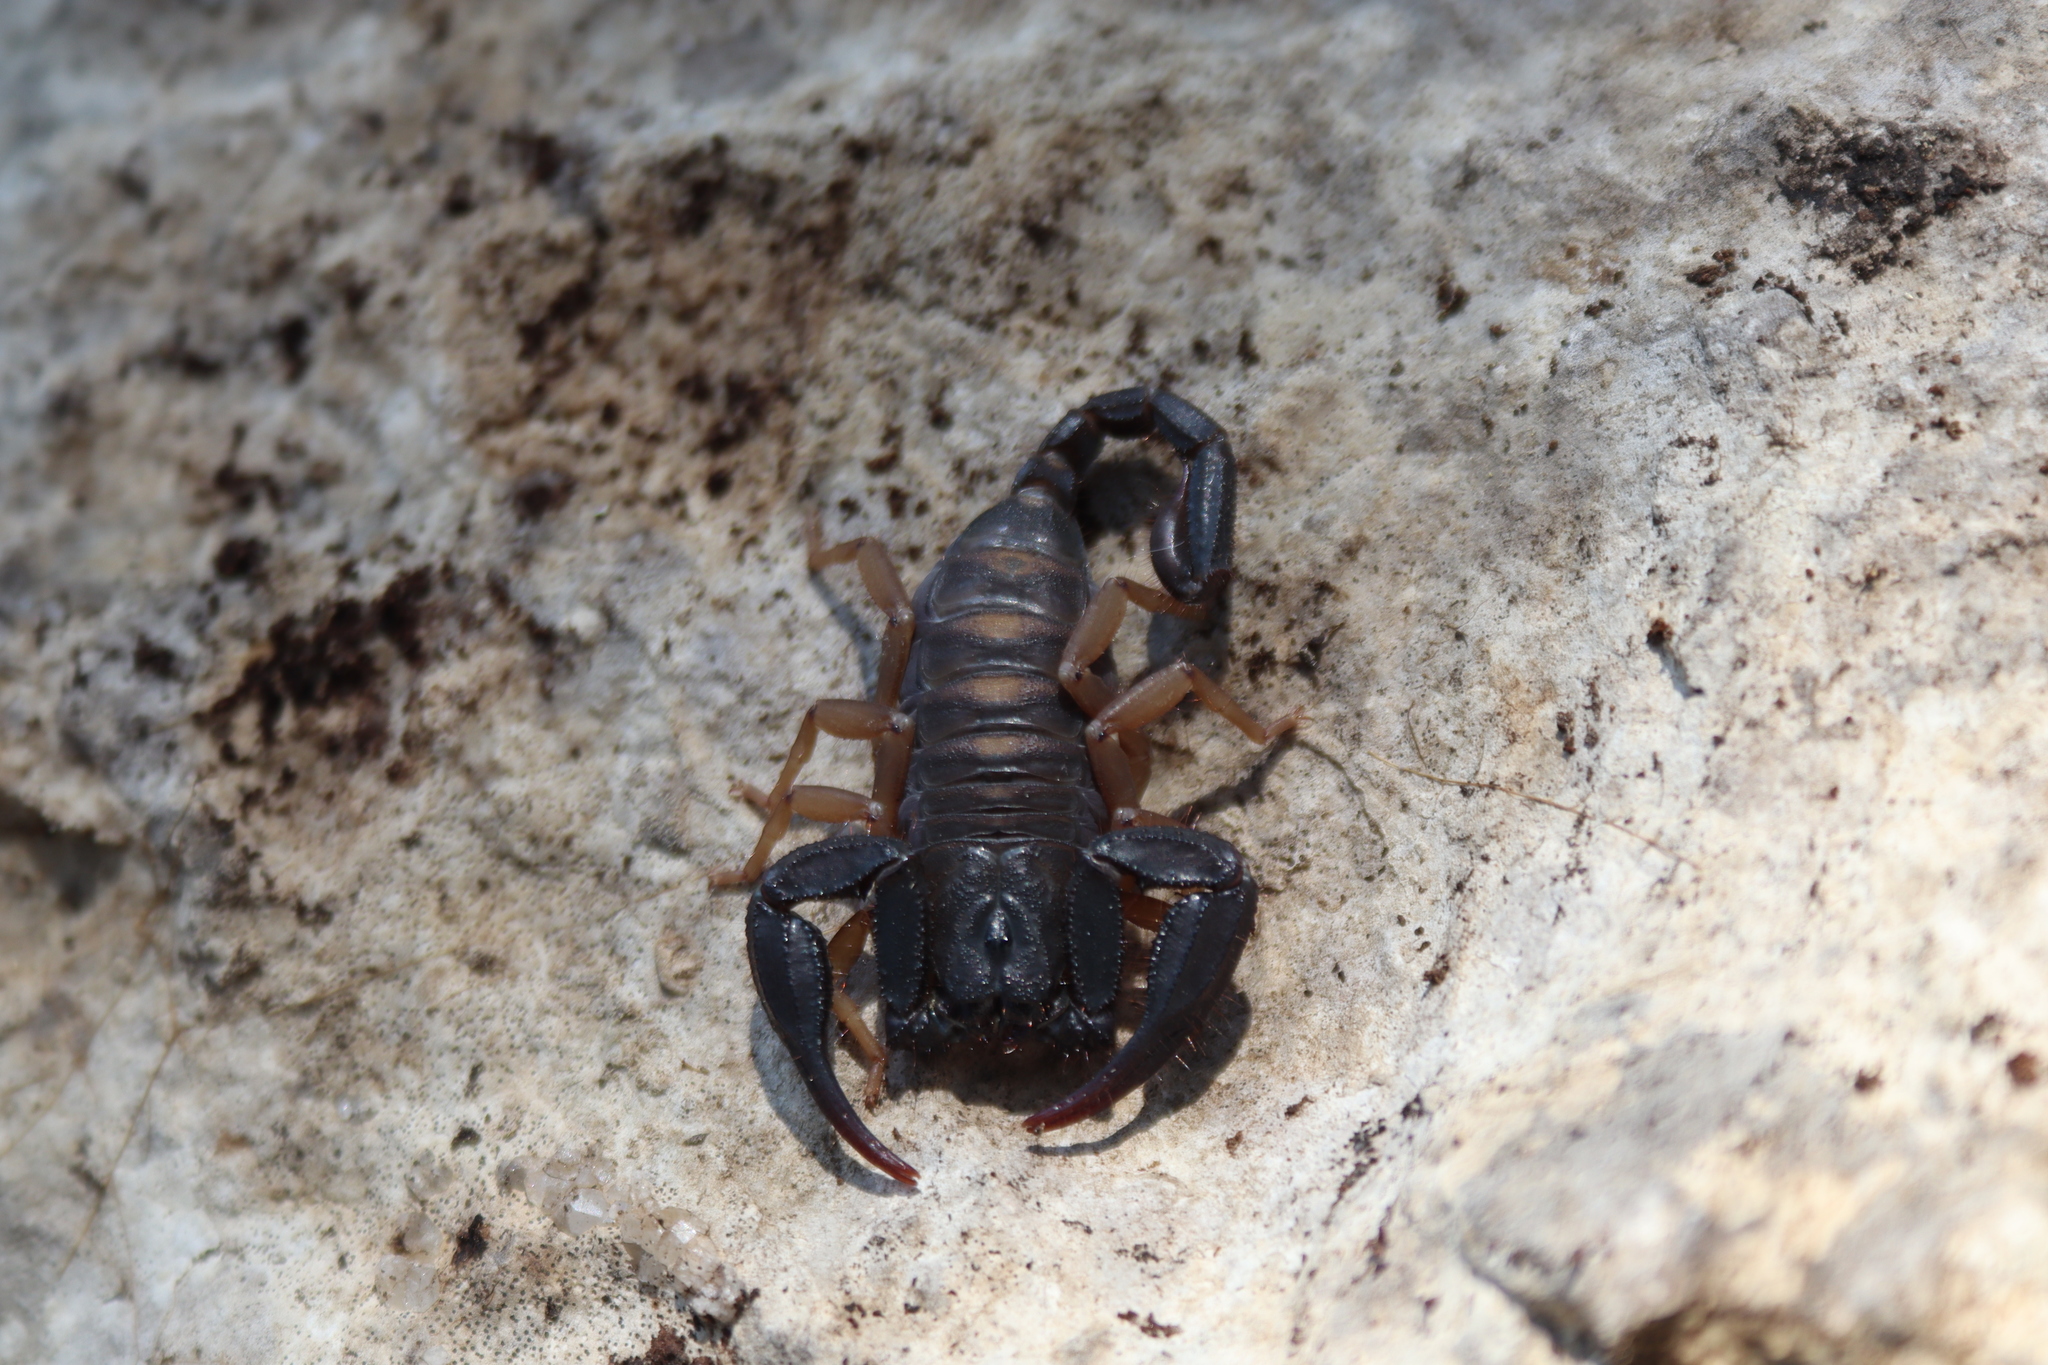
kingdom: Animalia
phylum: Arthropoda
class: Arachnida
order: Scorpiones
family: Iuridae
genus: Anatoliurus
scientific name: Anatoliurus kraepelini
